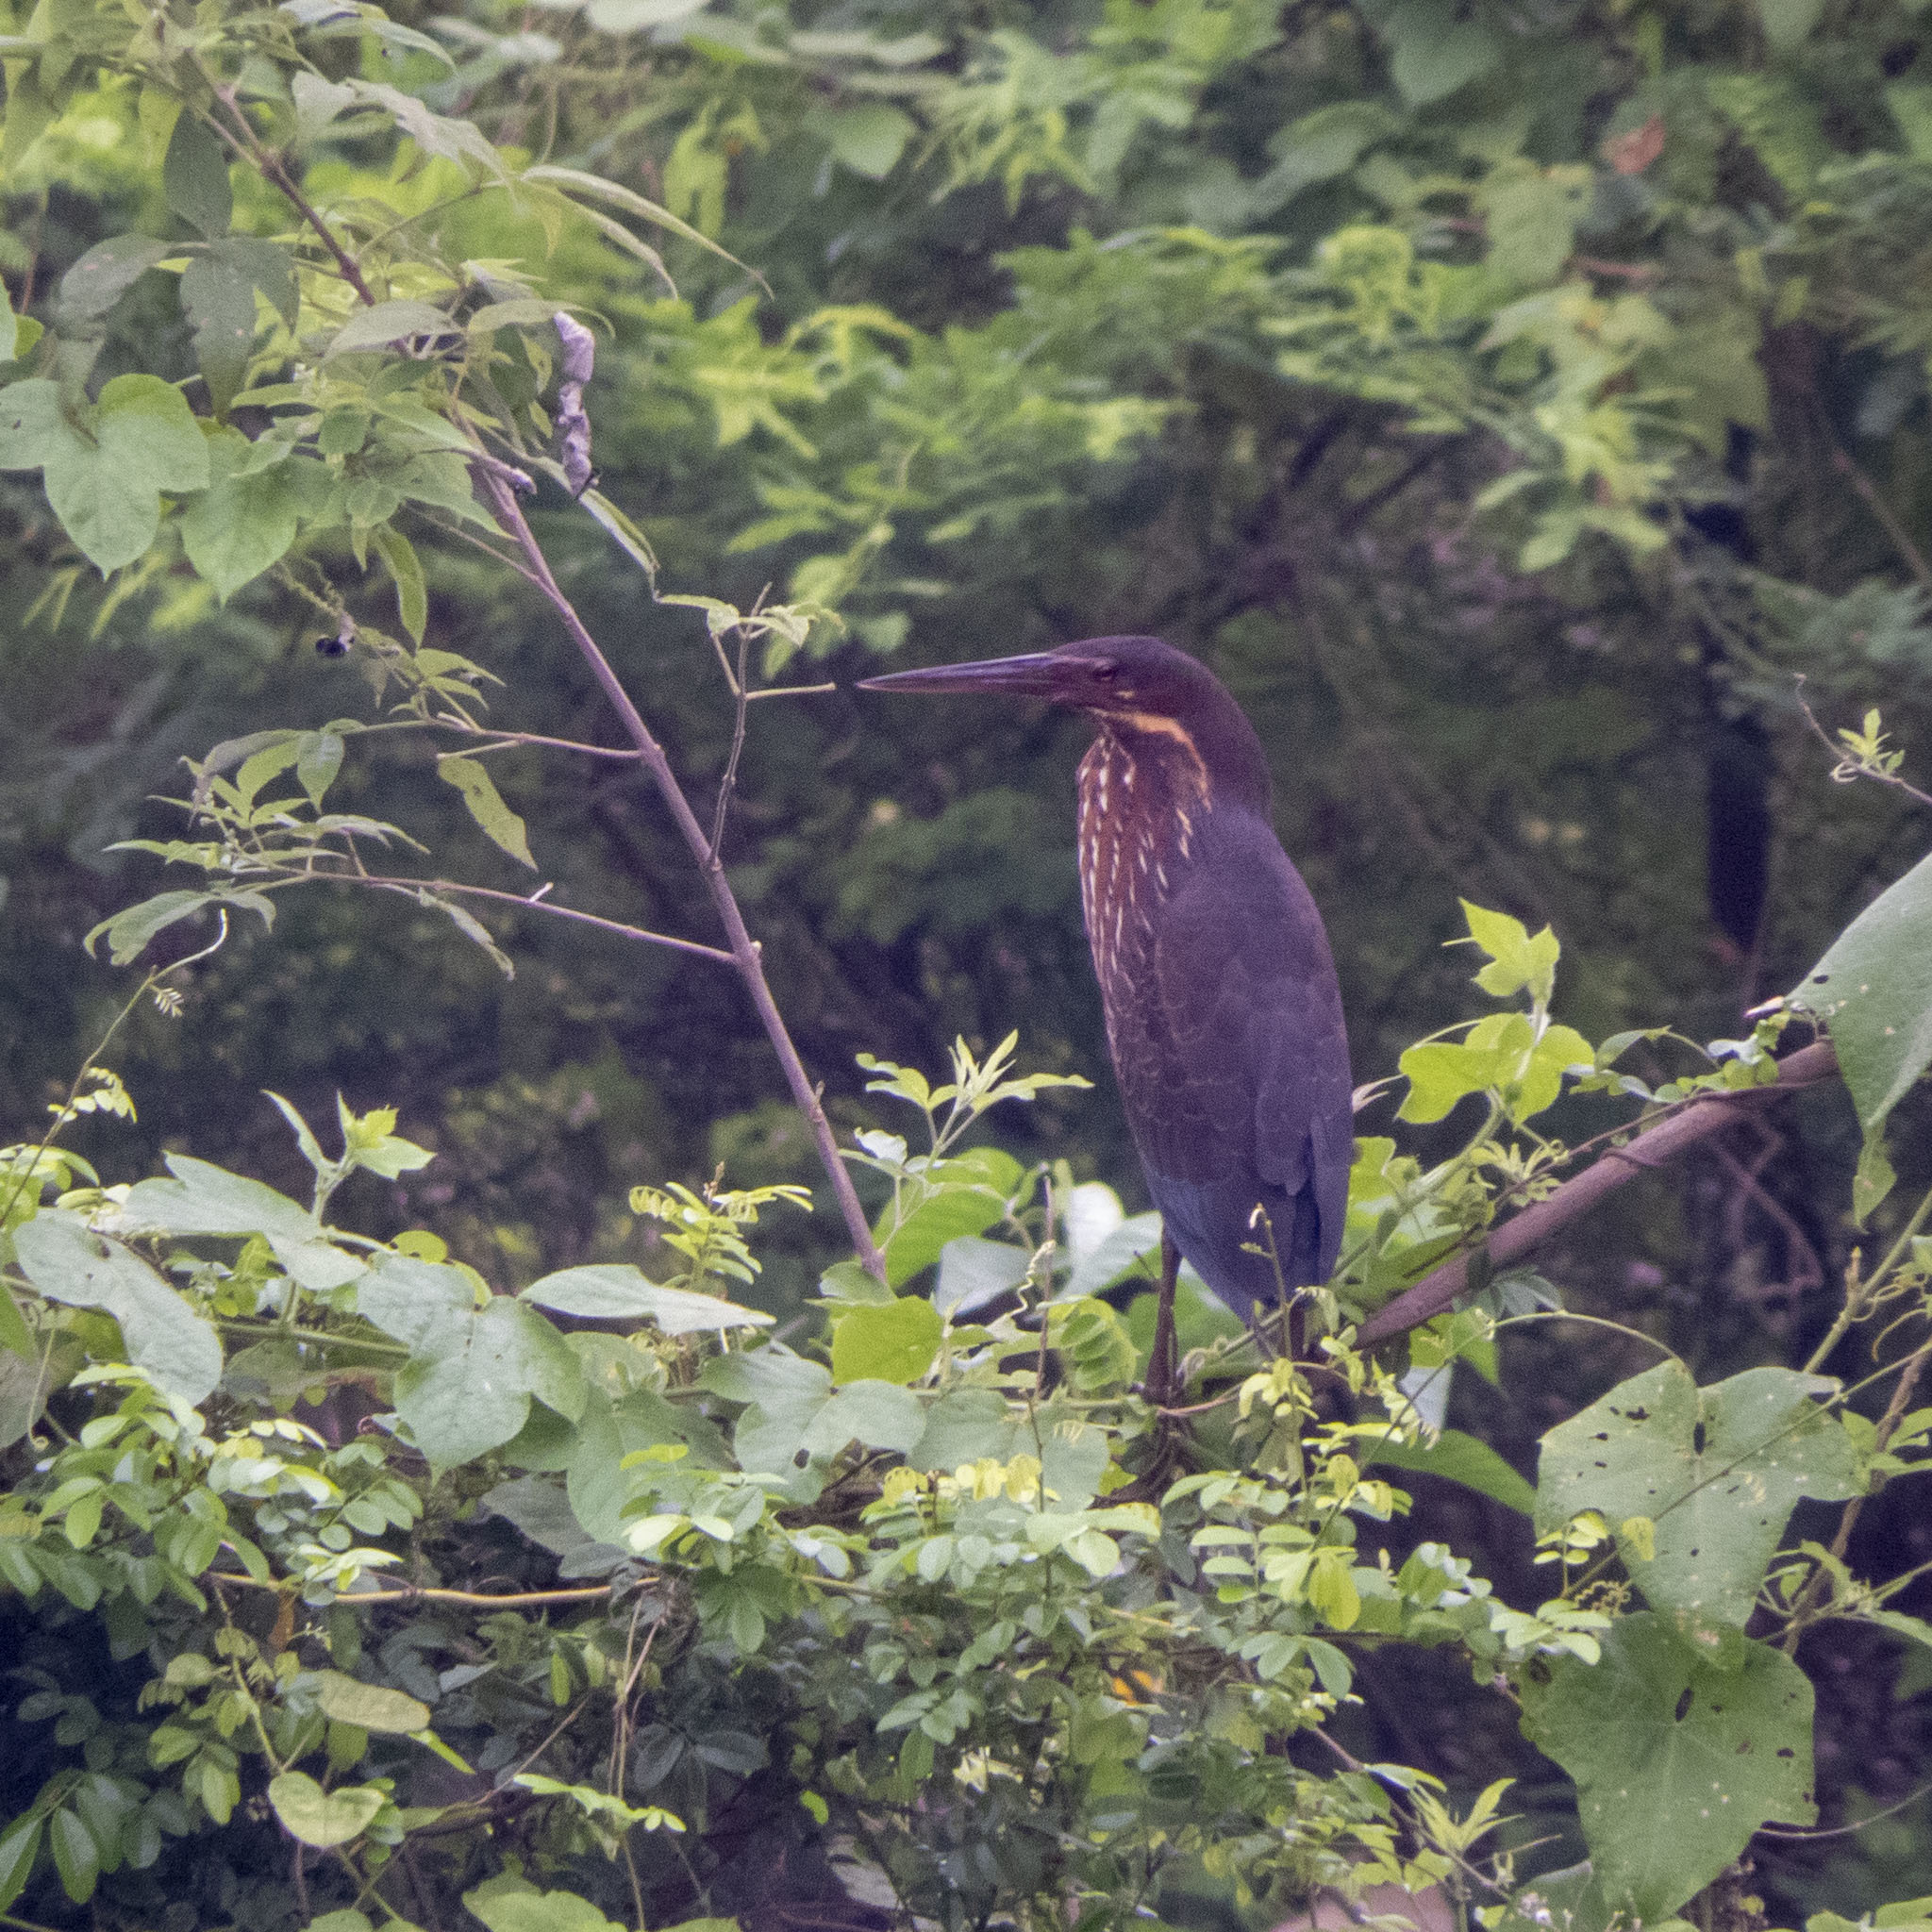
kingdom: Animalia
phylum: Chordata
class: Aves
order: Pelecaniformes
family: Ardeidae
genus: Dupetor
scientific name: Dupetor flavicollis
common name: Black bittern
